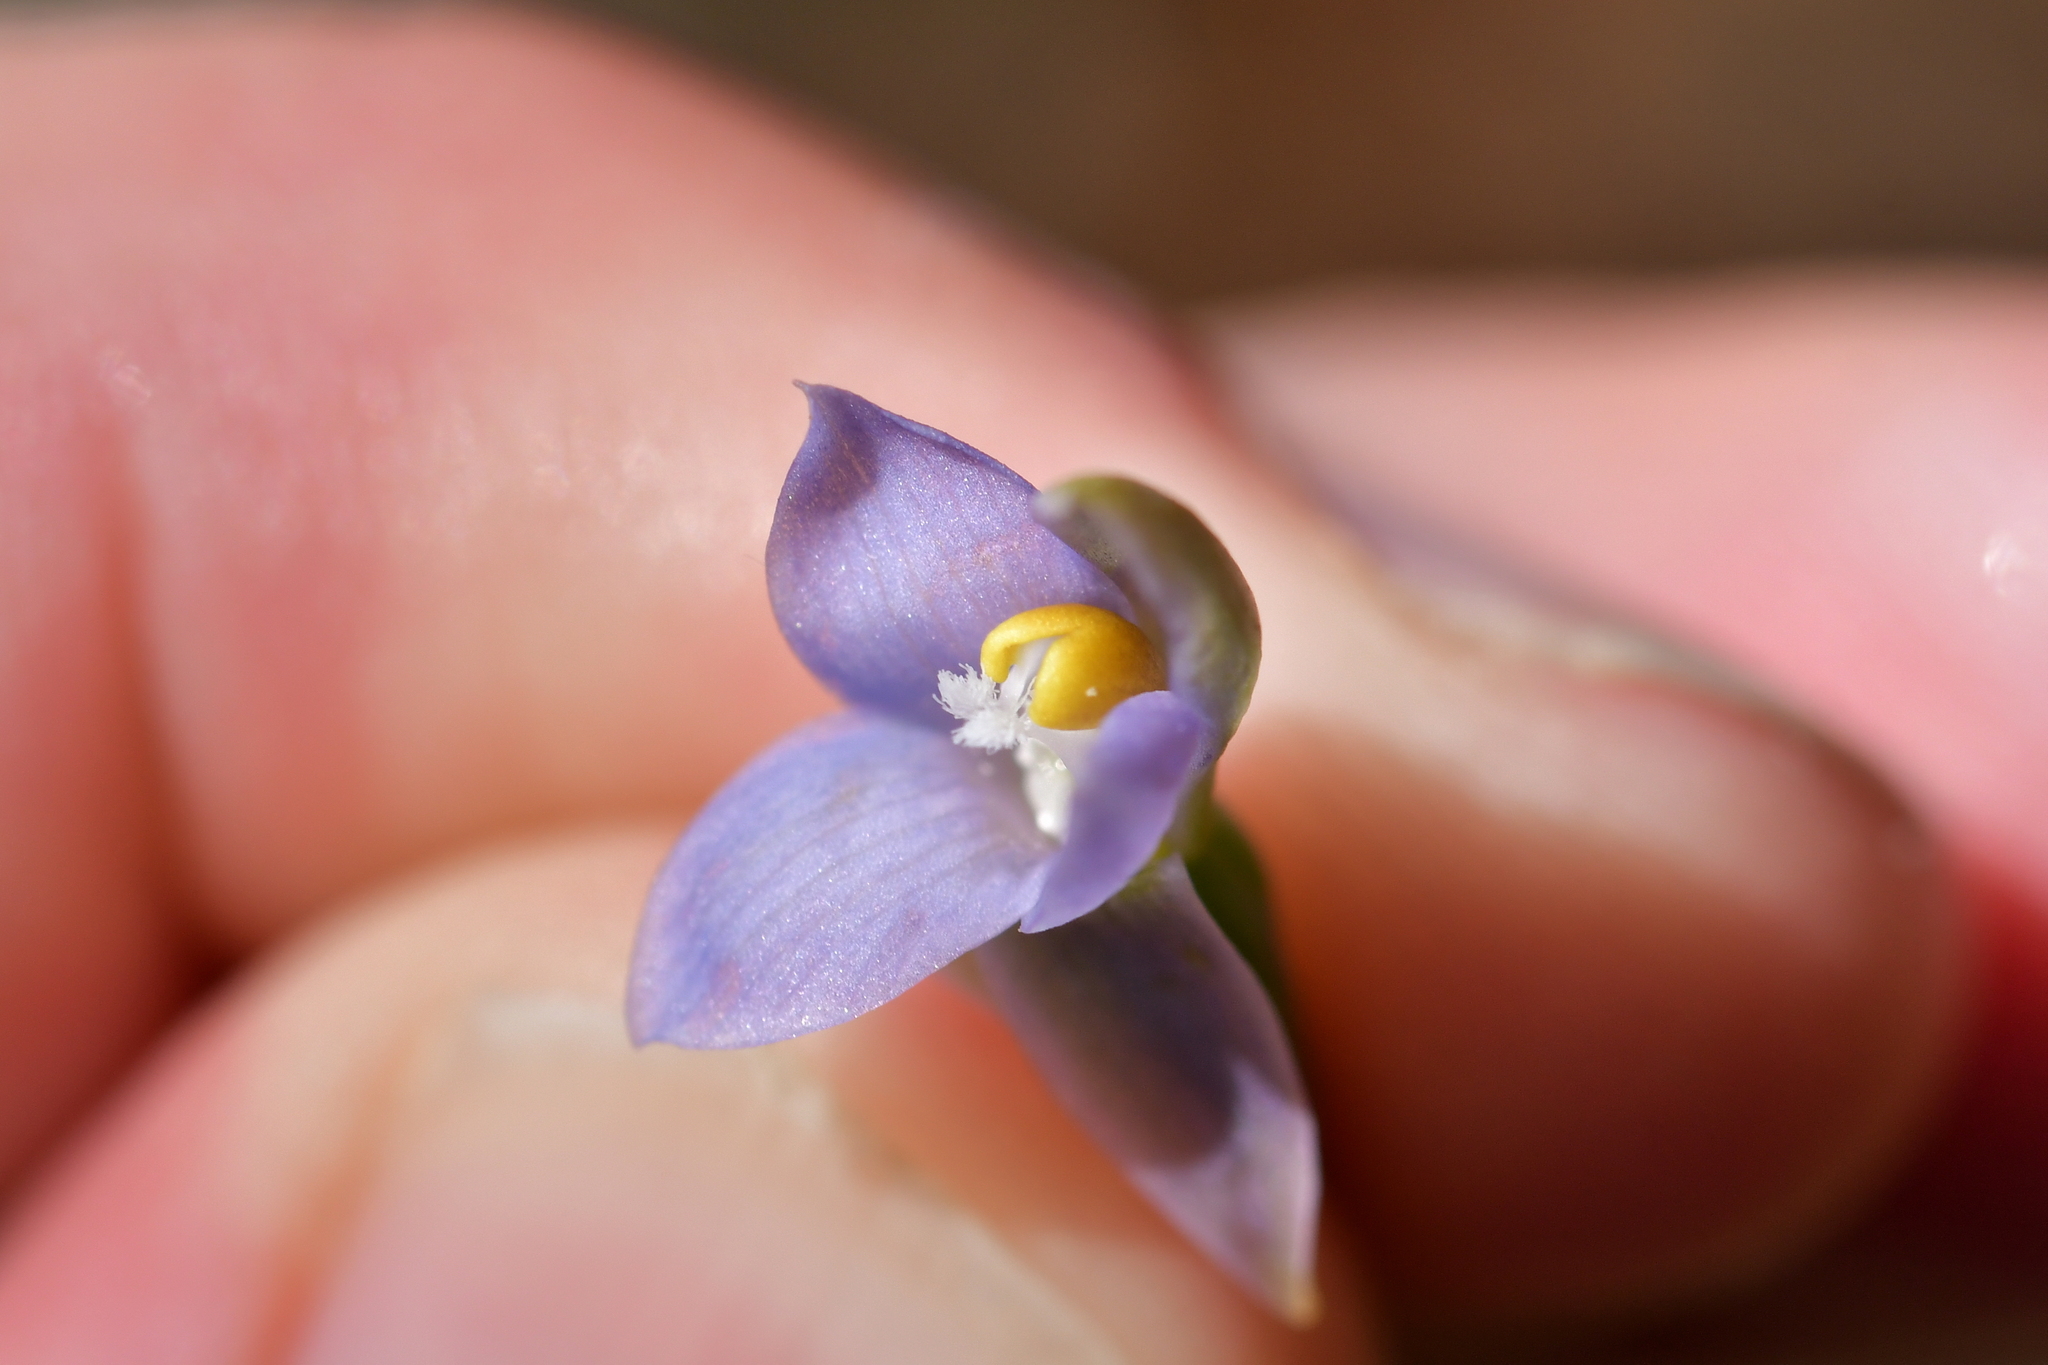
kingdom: Plantae
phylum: Tracheophyta
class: Liliopsida
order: Asparagales
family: Orchidaceae
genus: Thelymitra
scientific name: Thelymitra colensoi
